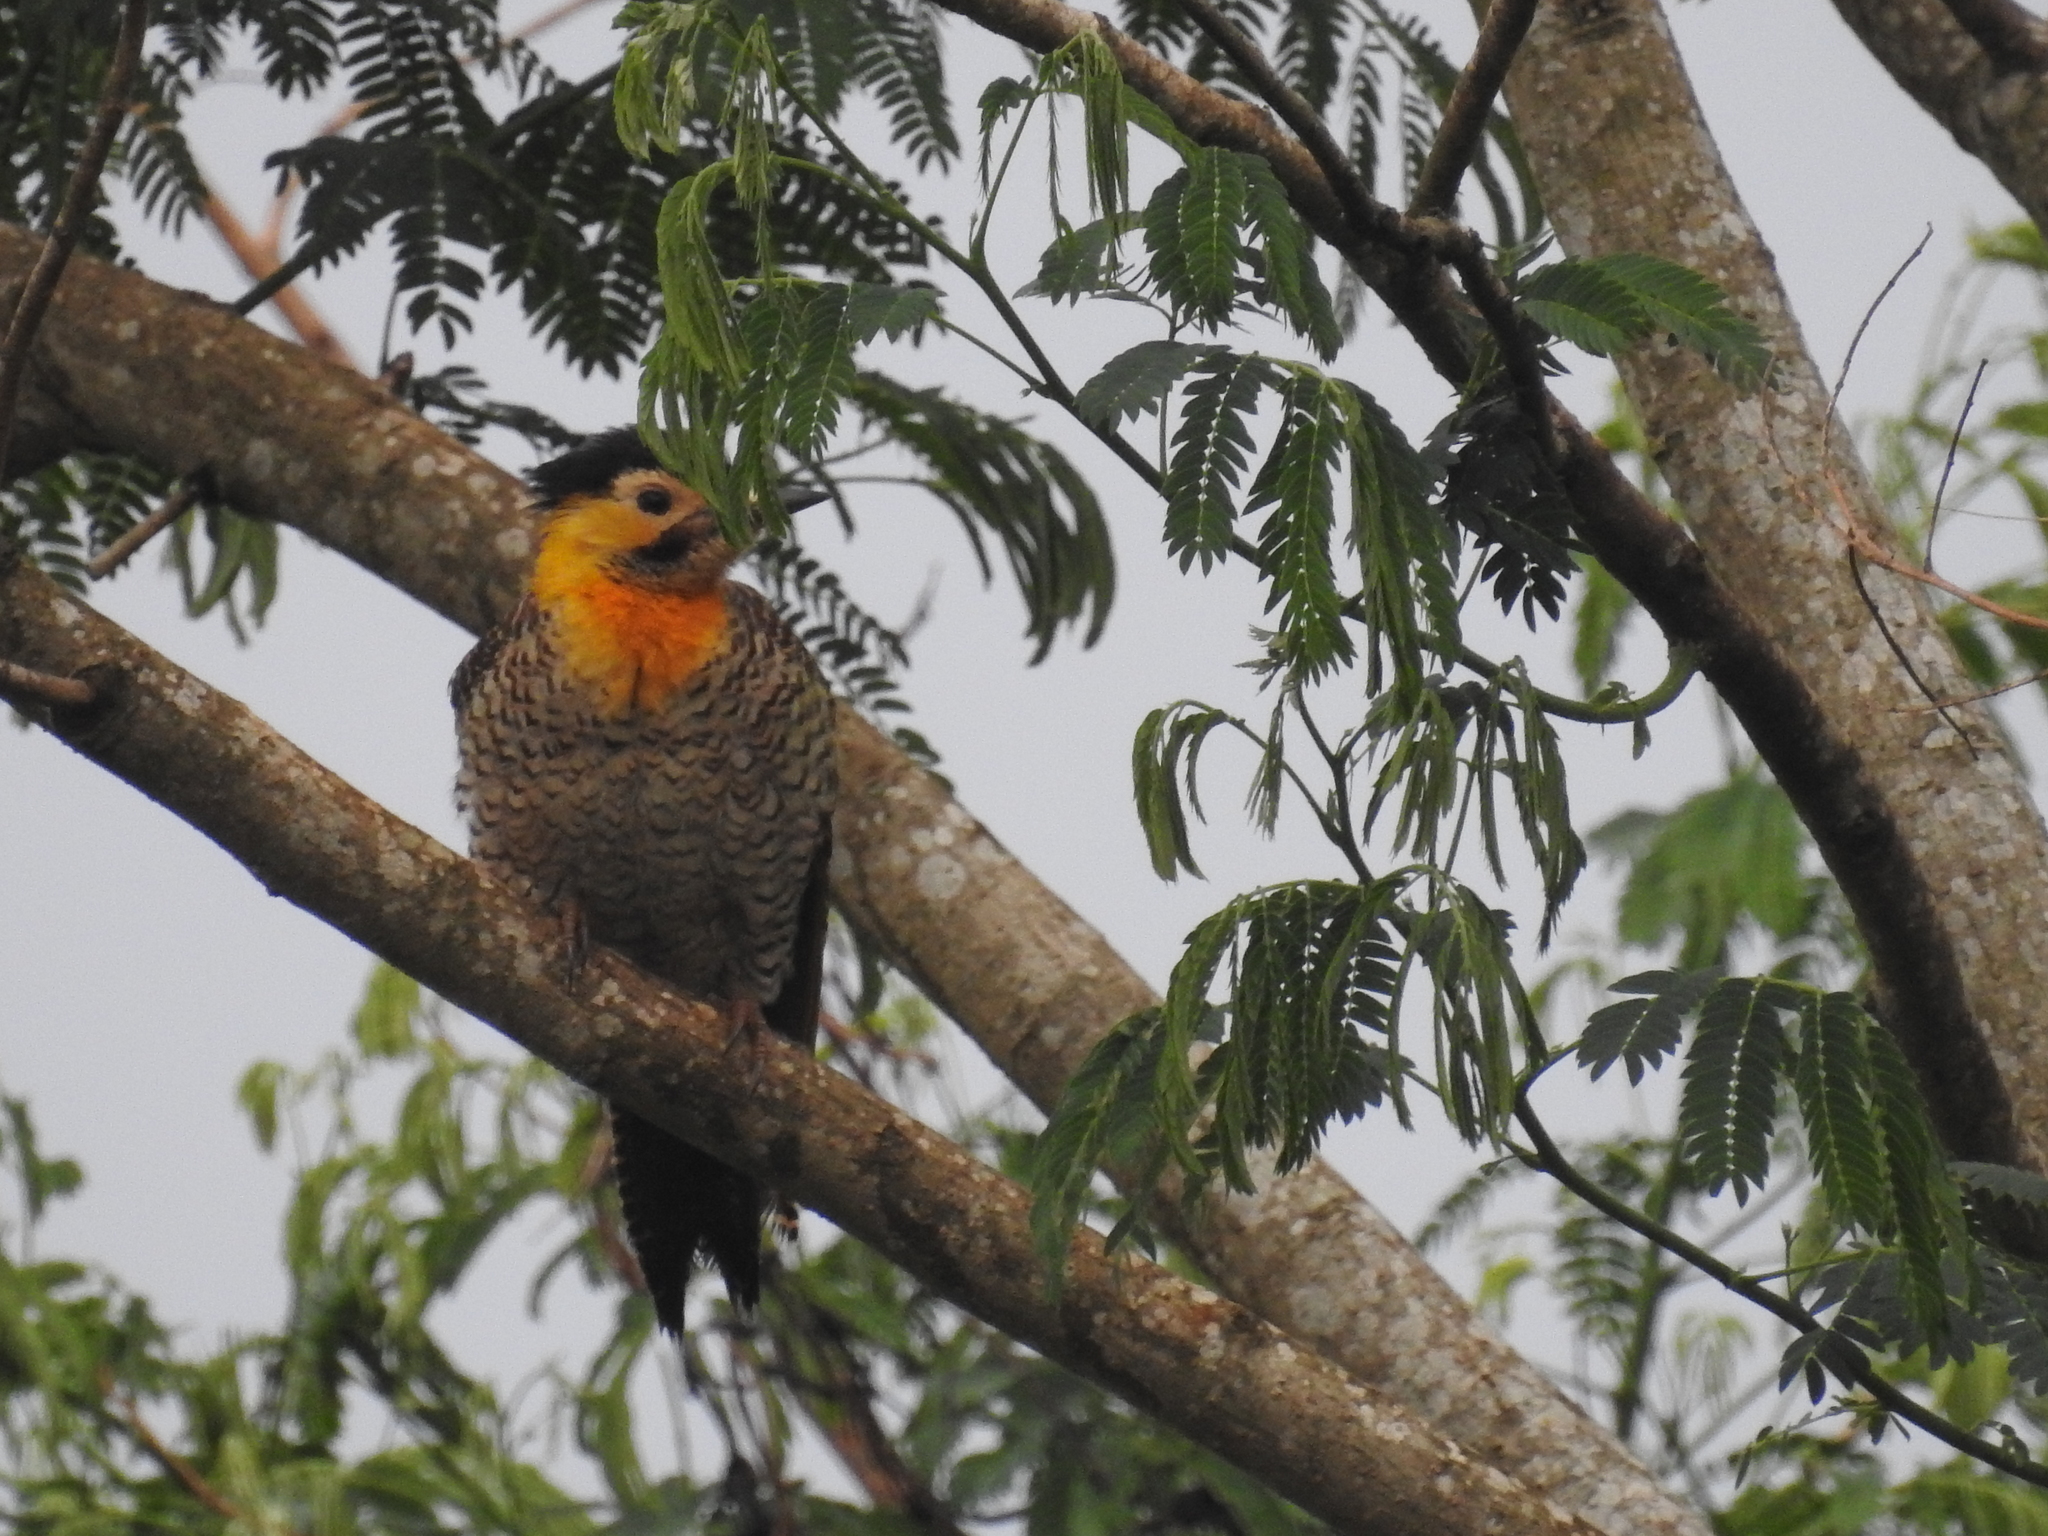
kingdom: Animalia
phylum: Chordata
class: Aves
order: Piciformes
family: Picidae
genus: Colaptes
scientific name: Colaptes campestris
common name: Campo flicker
